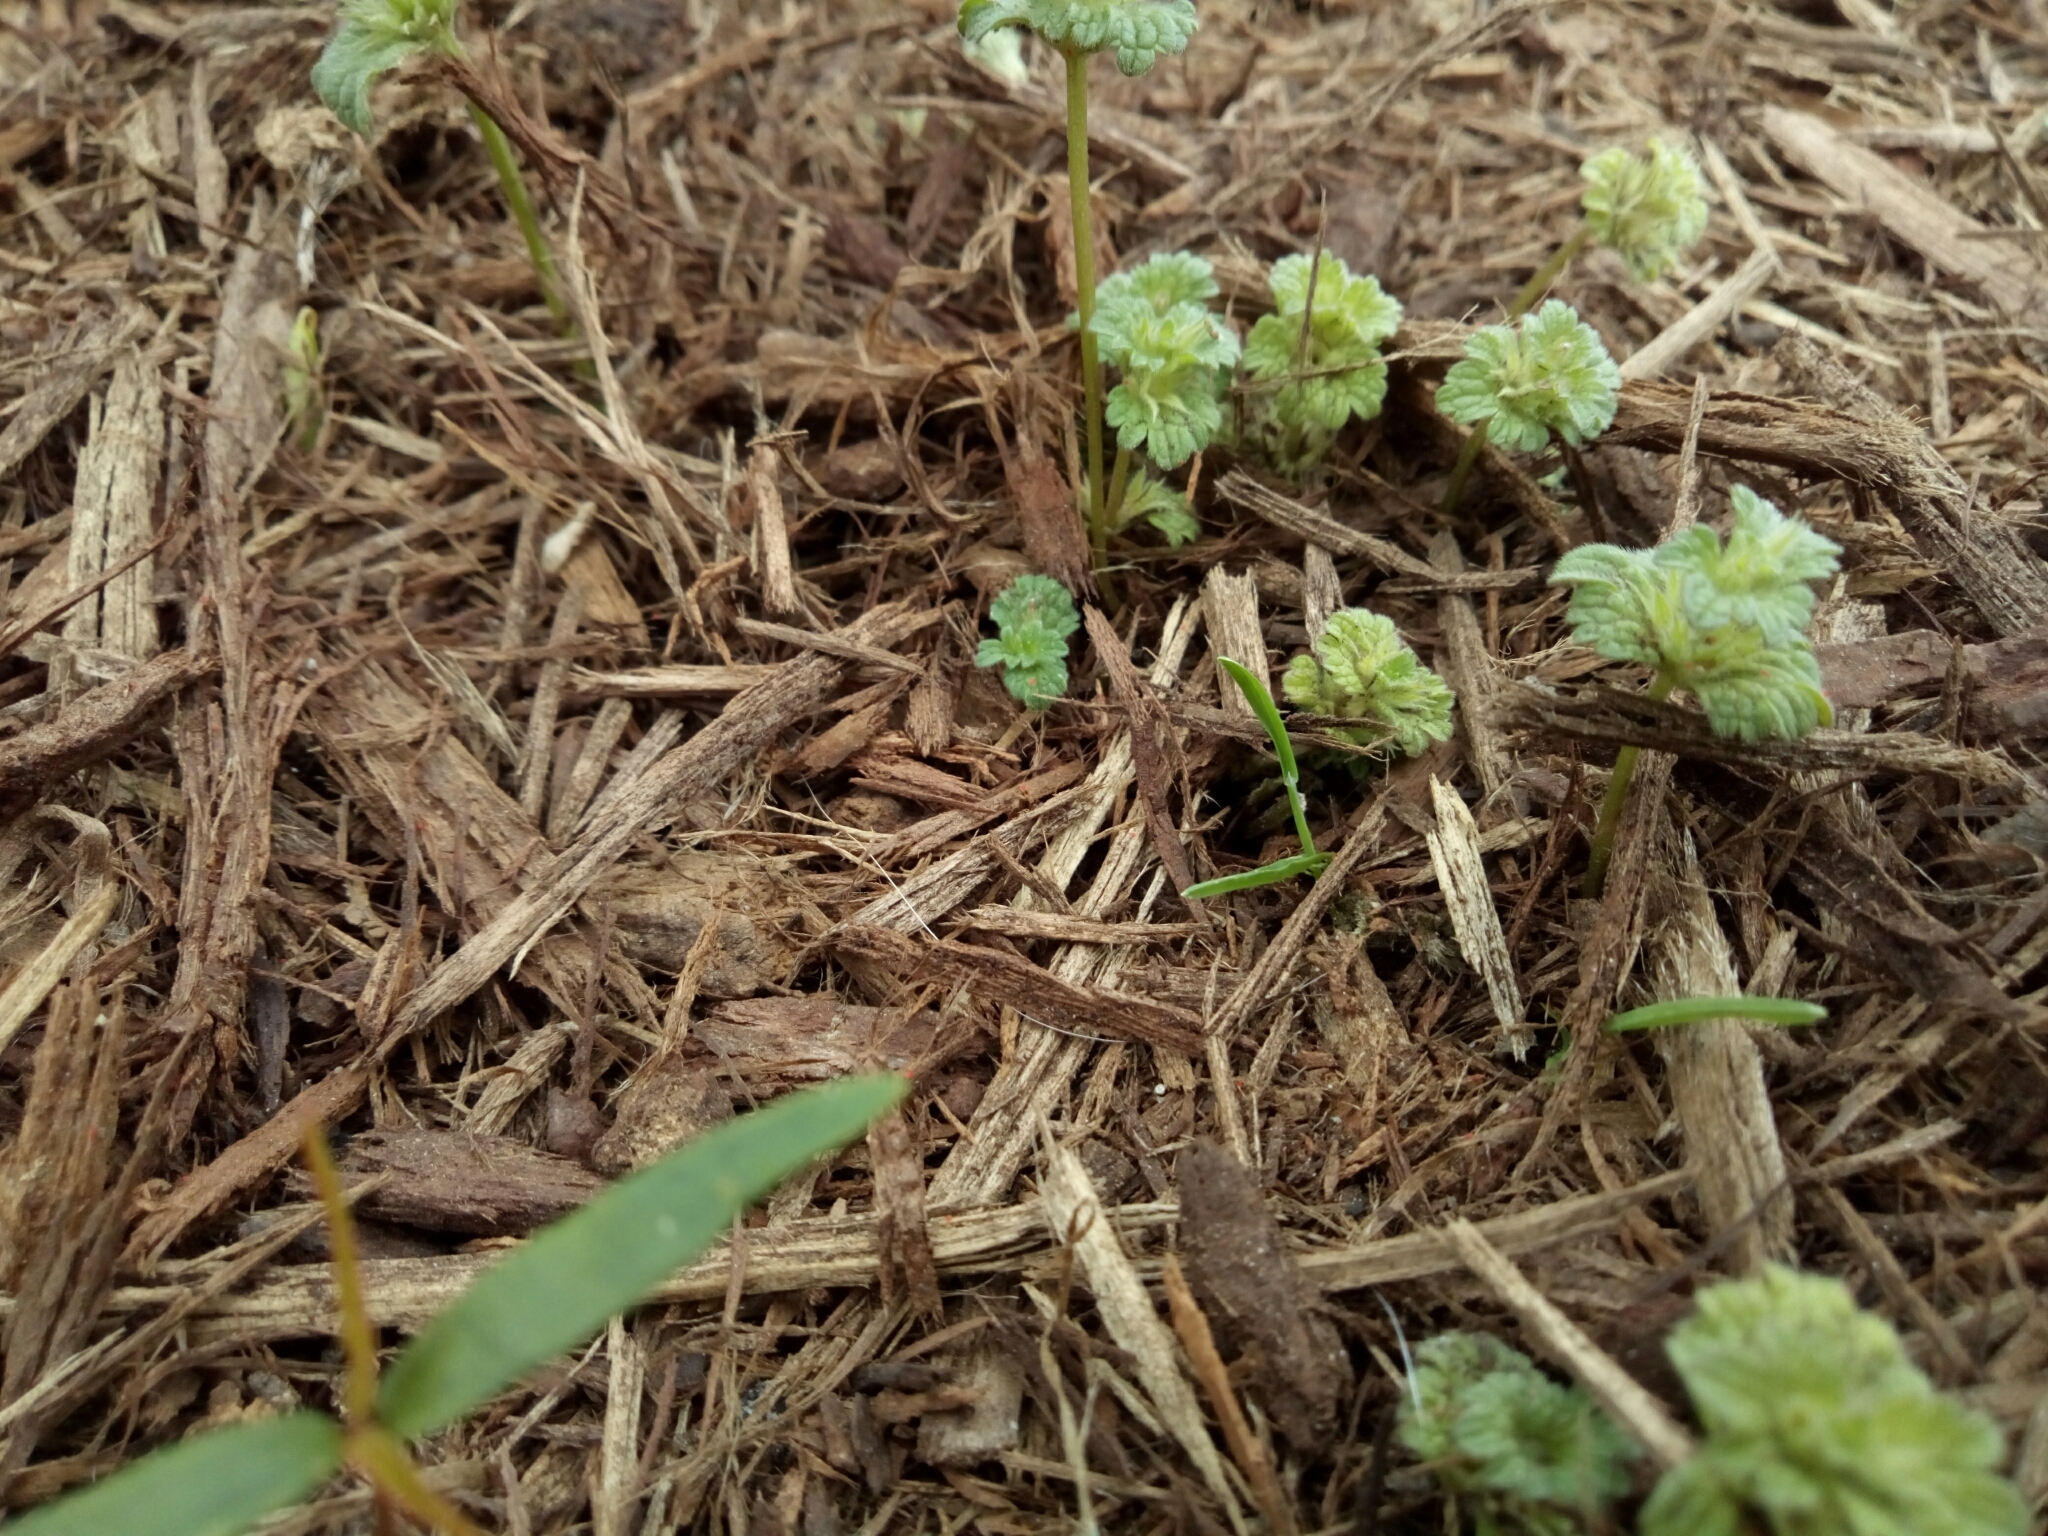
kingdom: Plantae
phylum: Tracheophyta
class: Magnoliopsida
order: Lamiales
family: Lamiaceae
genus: Lamium
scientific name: Lamium amplexicaule
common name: Henbit dead-nettle
